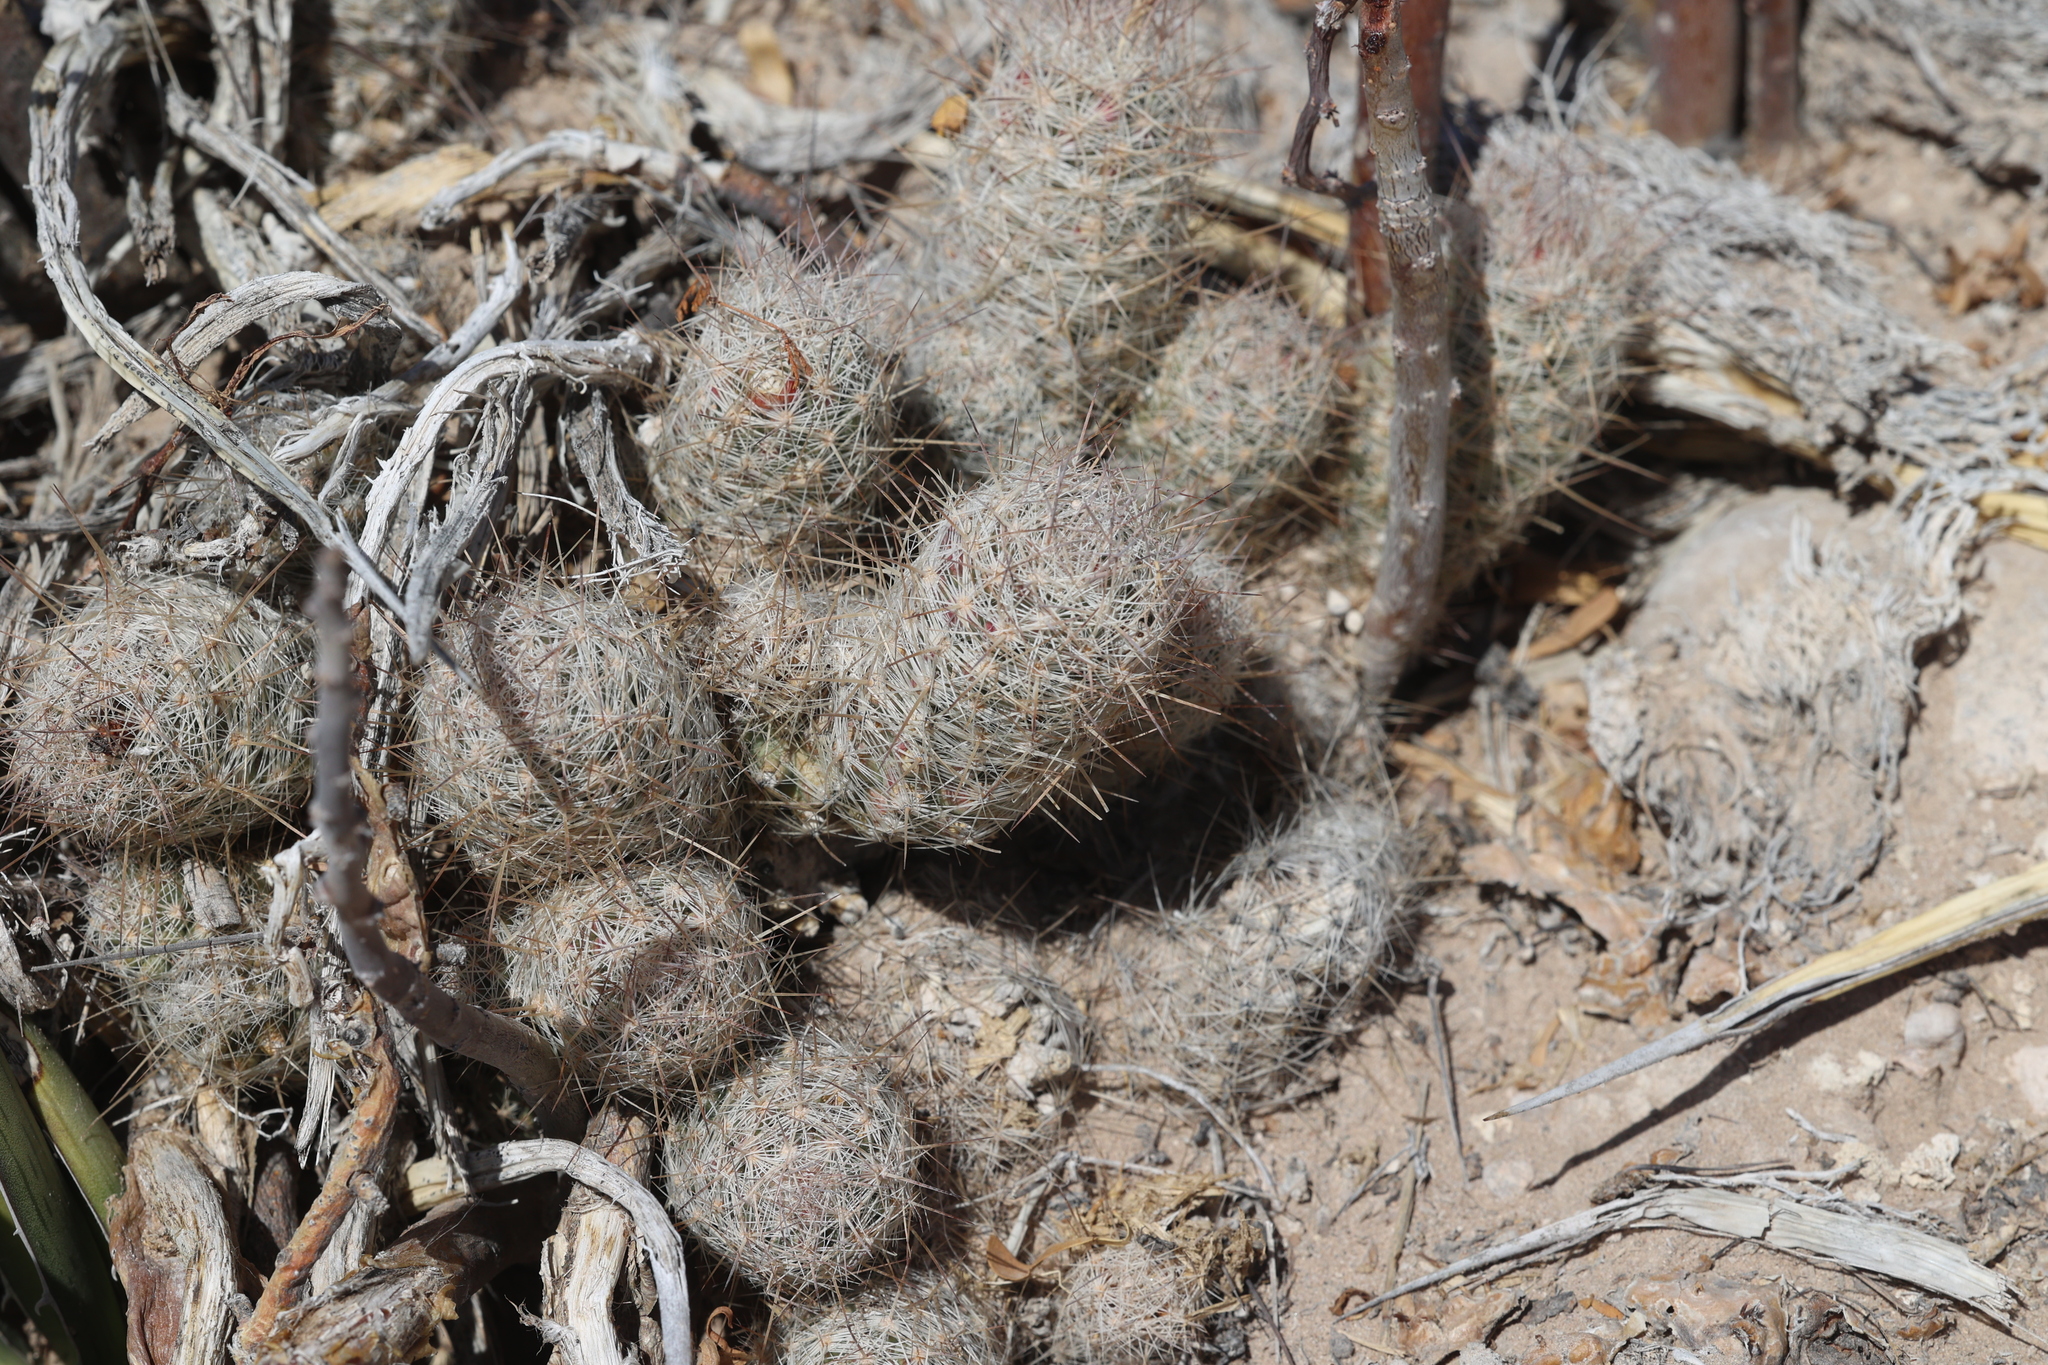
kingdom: Plantae
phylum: Tracheophyta
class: Magnoliopsida
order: Caryophyllales
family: Cactaceae
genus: Mammillaria
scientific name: Mammillaria pottsii
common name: Pott's nipple-cactus
